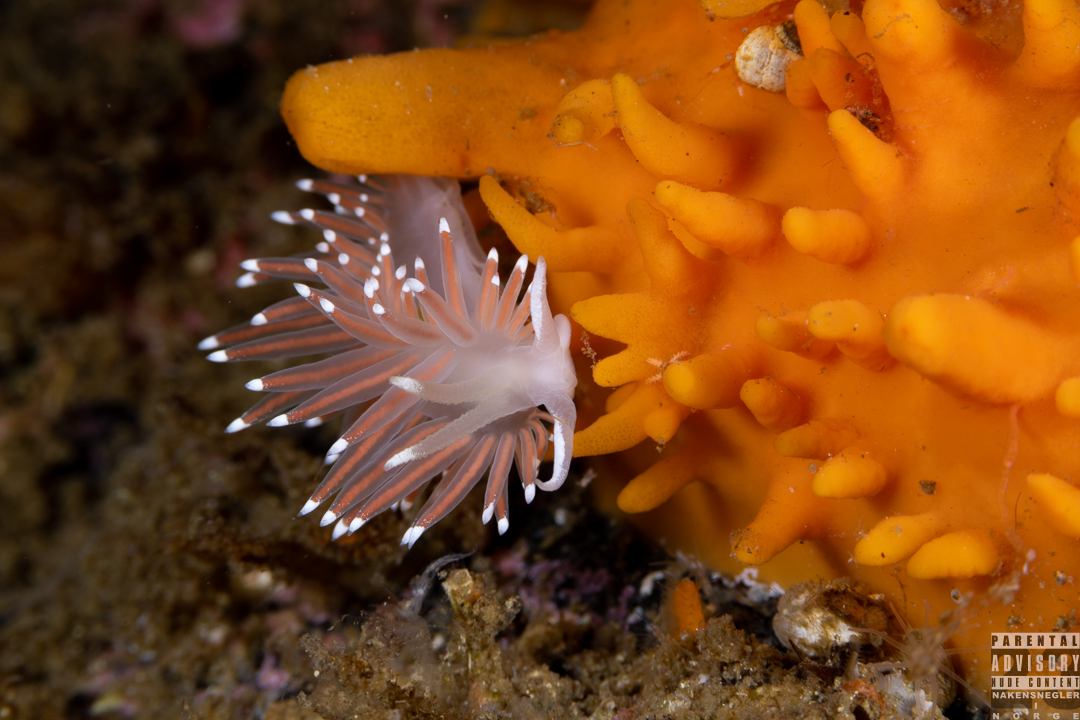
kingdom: Animalia
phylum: Mollusca
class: Gastropoda
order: Nudibranchia
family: Coryphellidae
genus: Coryphella
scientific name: Coryphella browni
